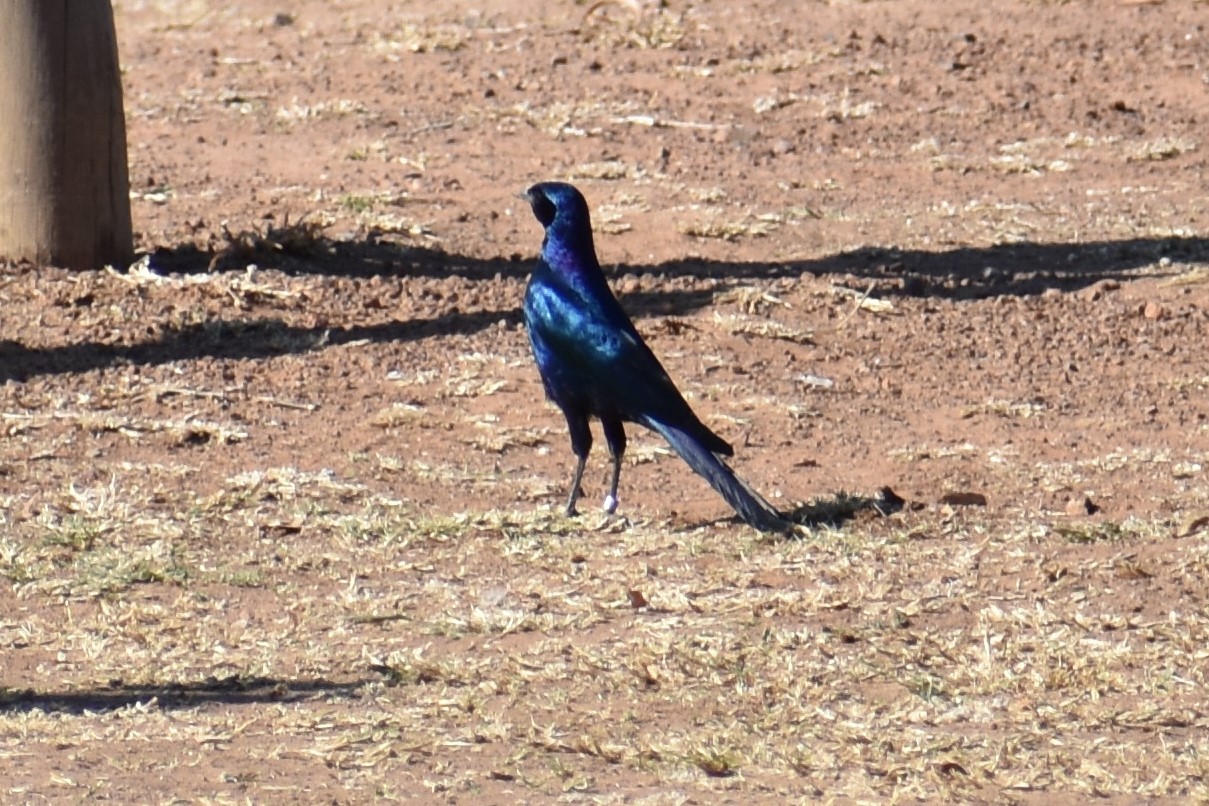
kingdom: Animalia
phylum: Chordata
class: Aves
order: Passeriformes
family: Sturnidae
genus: Lamprotornis
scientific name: Lamprotornis australis
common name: Burchell's starling
